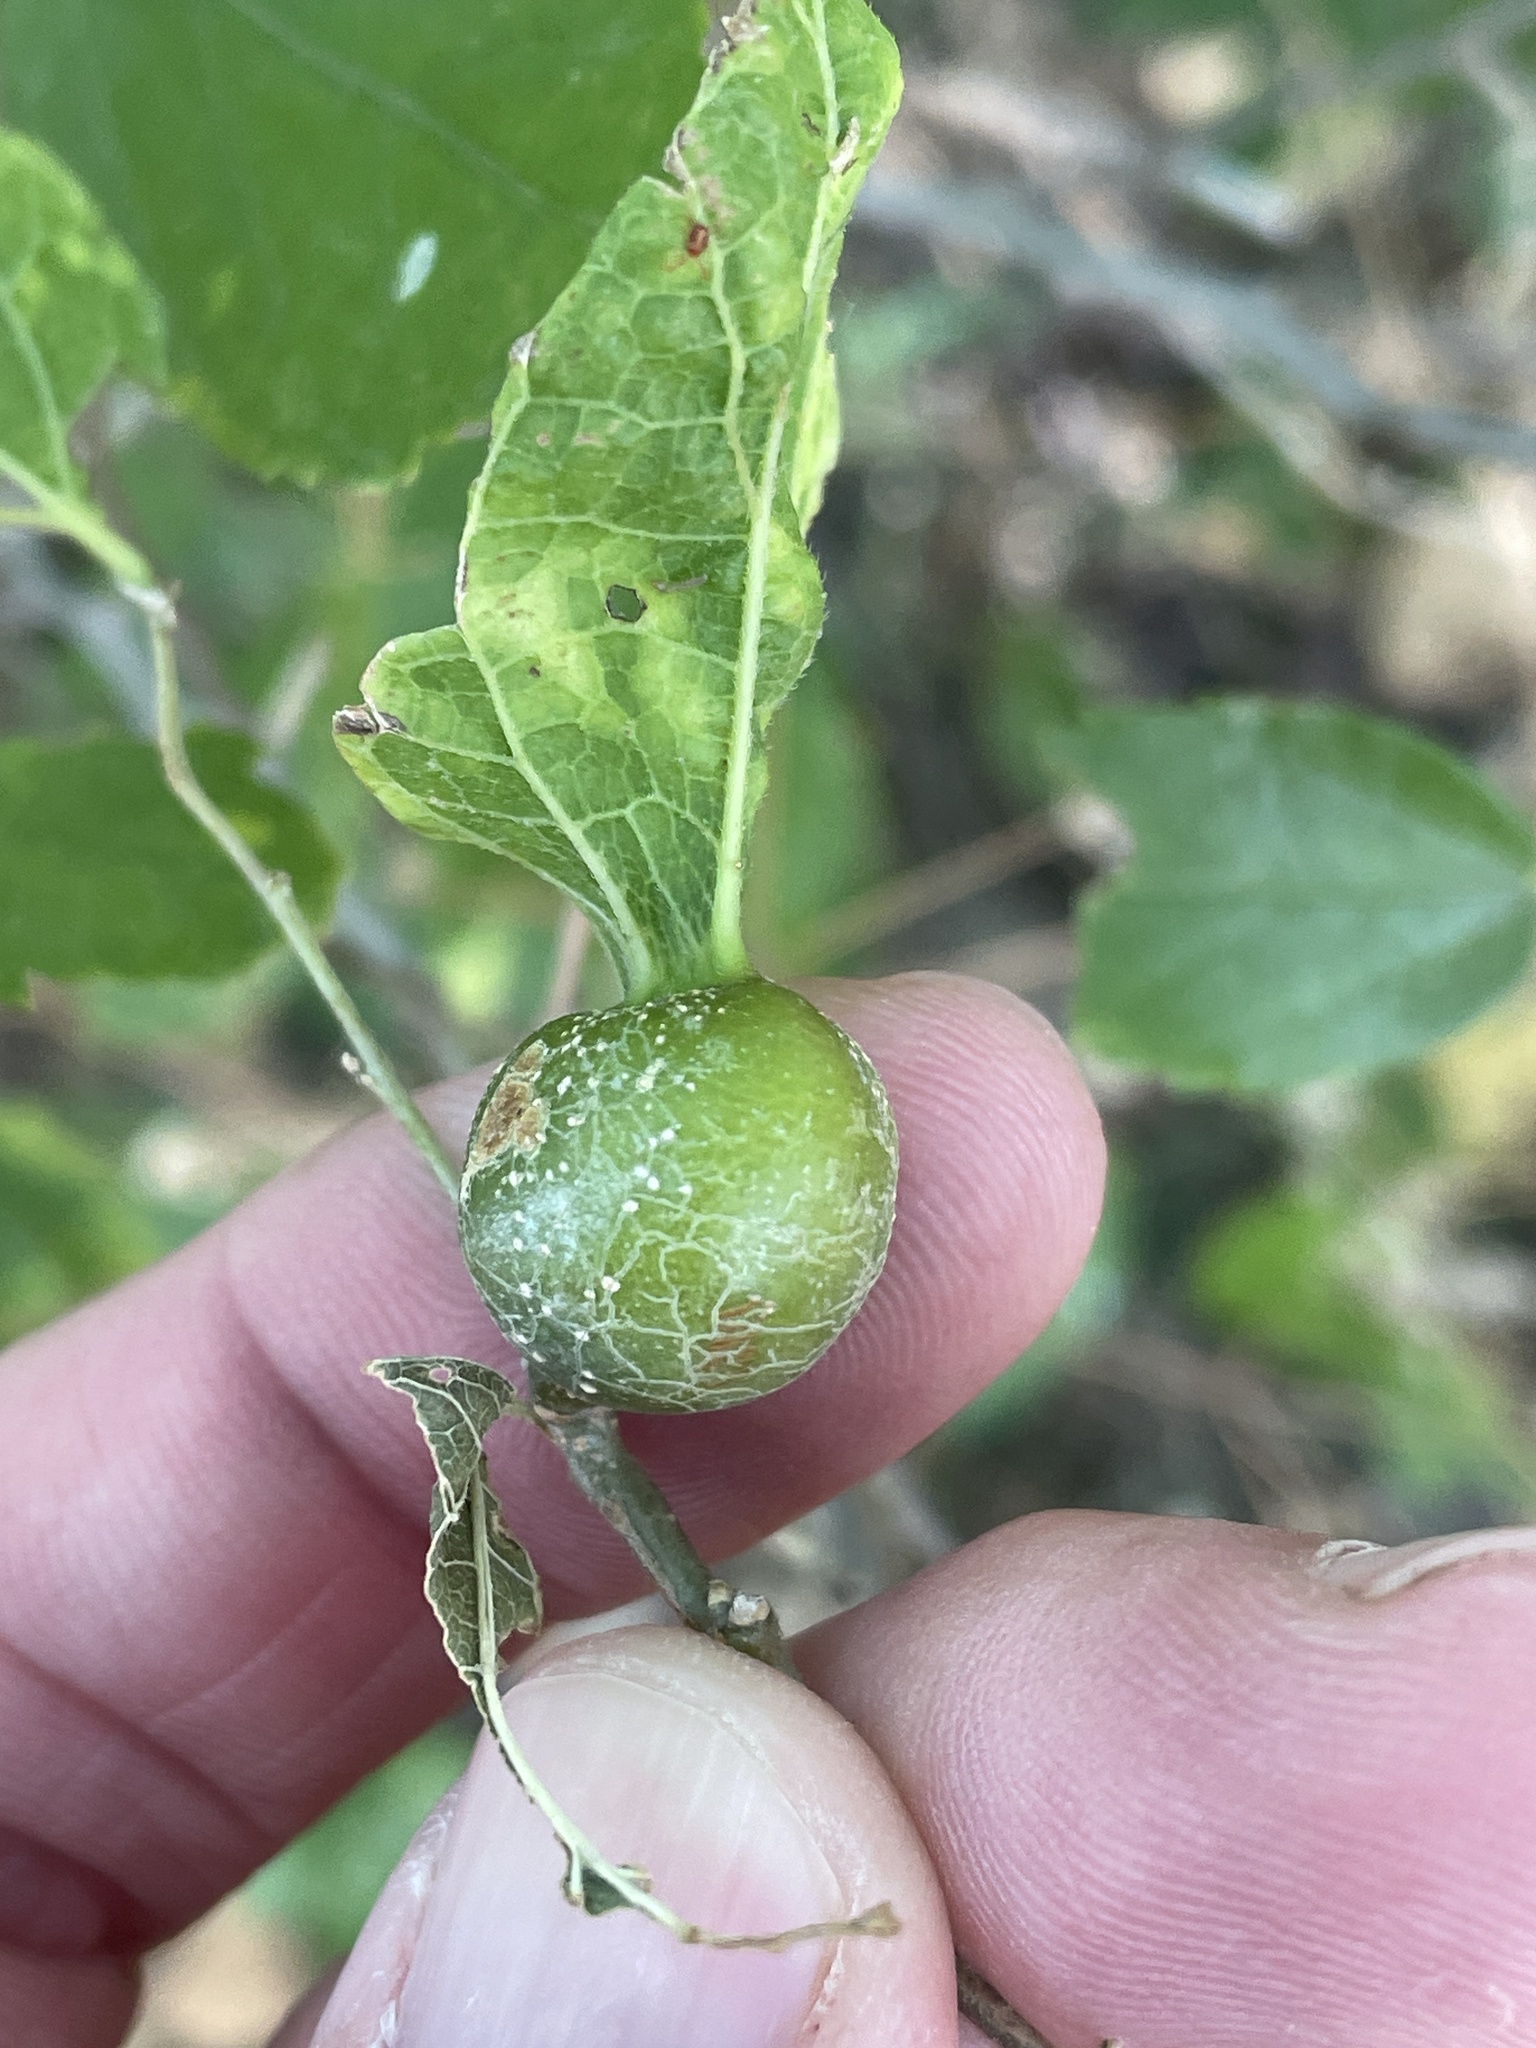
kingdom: Animalia
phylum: Arthropoda
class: Insecta
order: Hemiptera
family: Aphalaridae
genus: Pachypsylla
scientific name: Pachypsylla venusta
